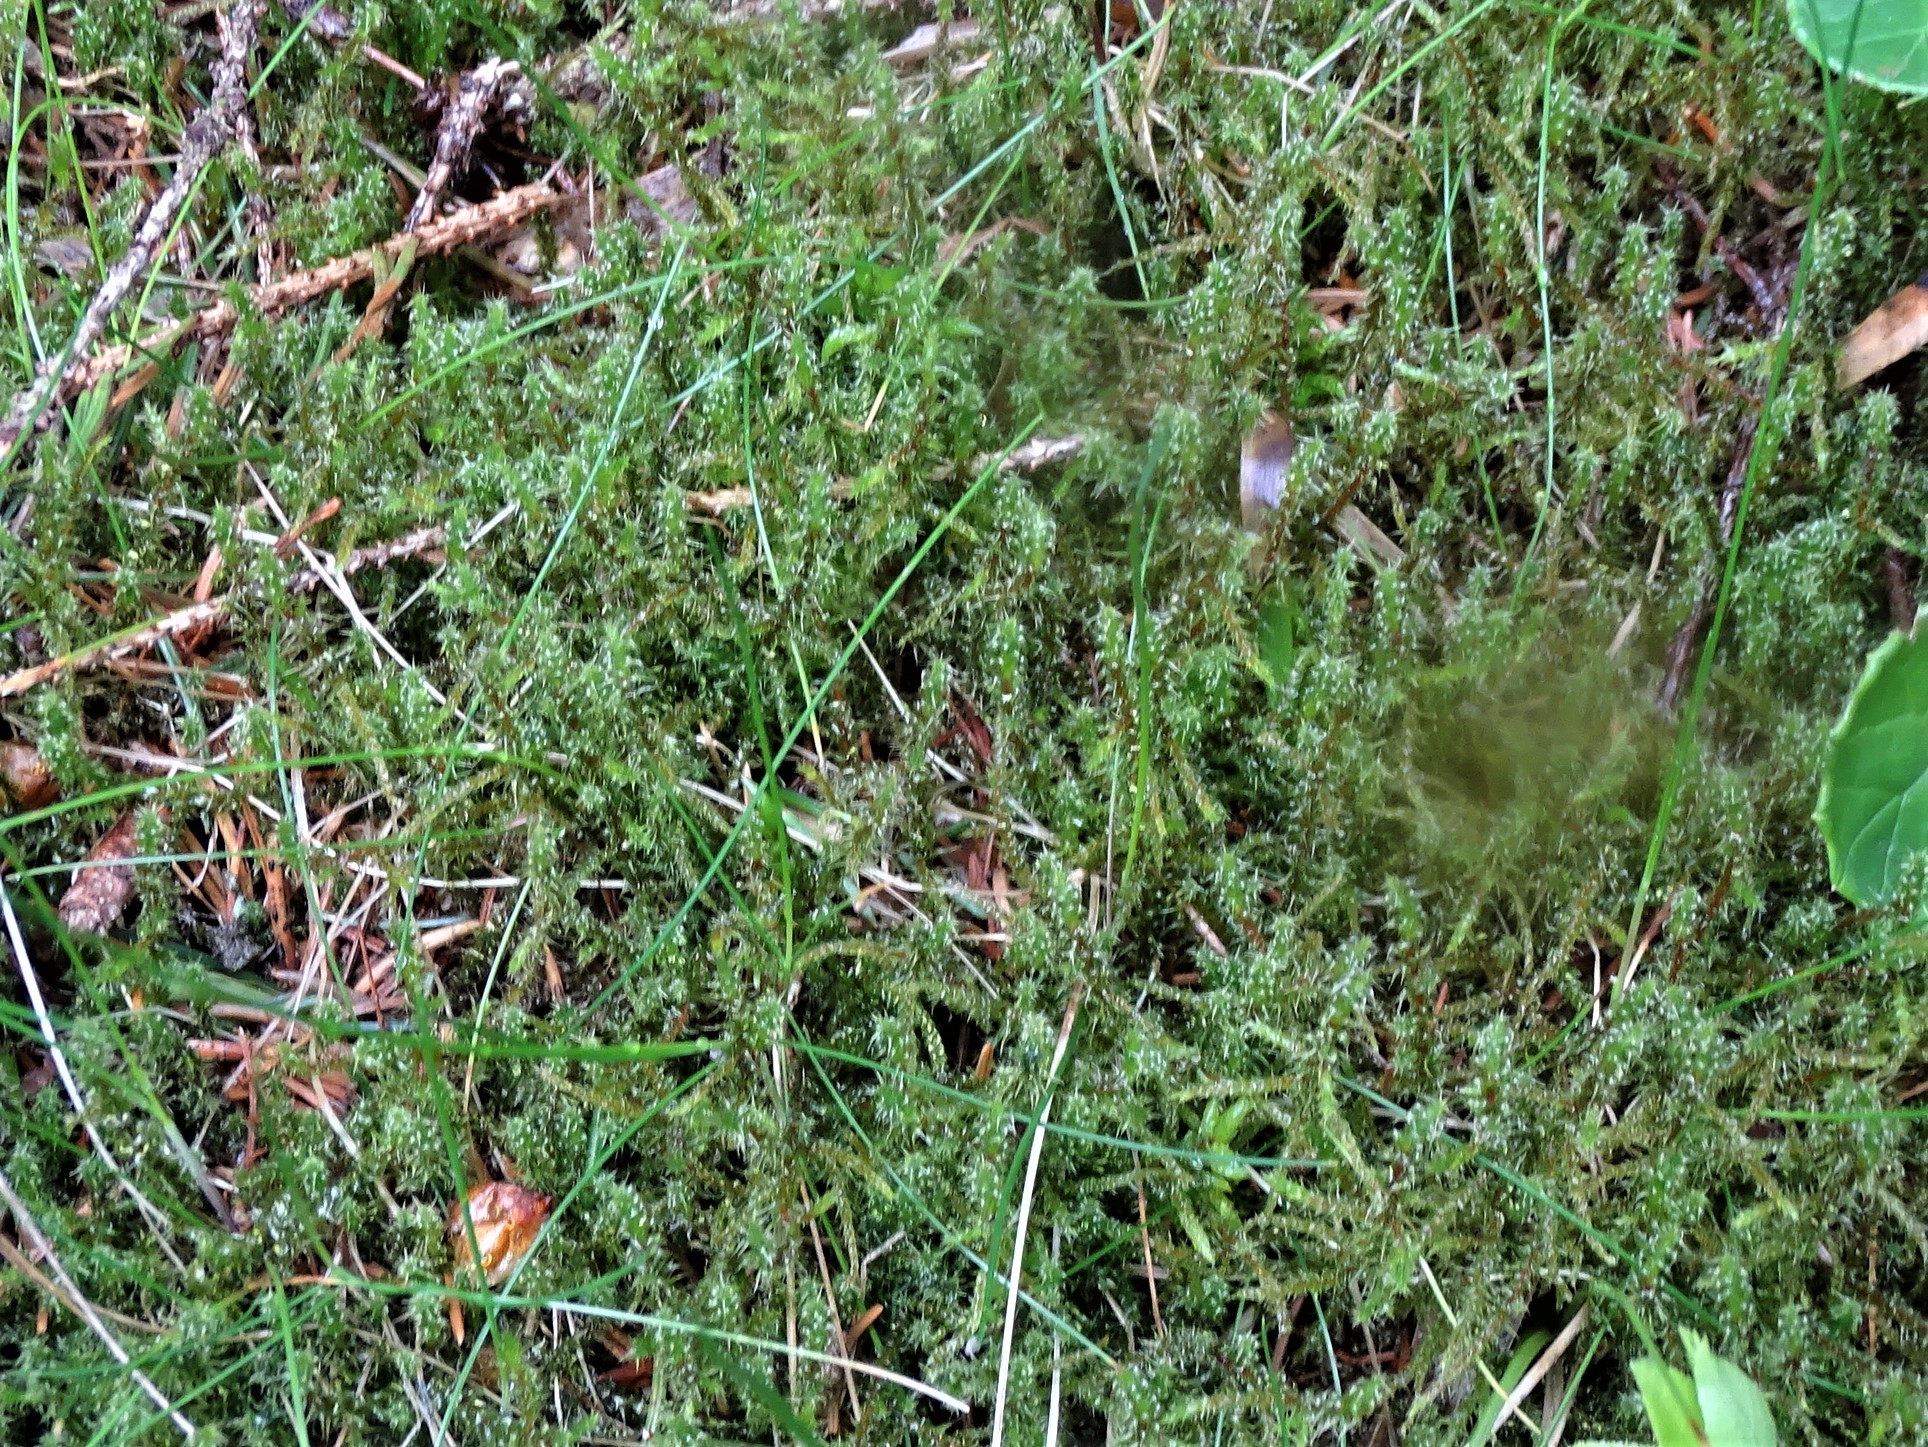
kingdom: Plantae
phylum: Bryophyta
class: Bryopsida
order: Hypnales
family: Hylocomiaceae
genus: Rhytidiadelphus
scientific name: Rhytidiadelphus squarrosus
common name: Springy turf-moss
